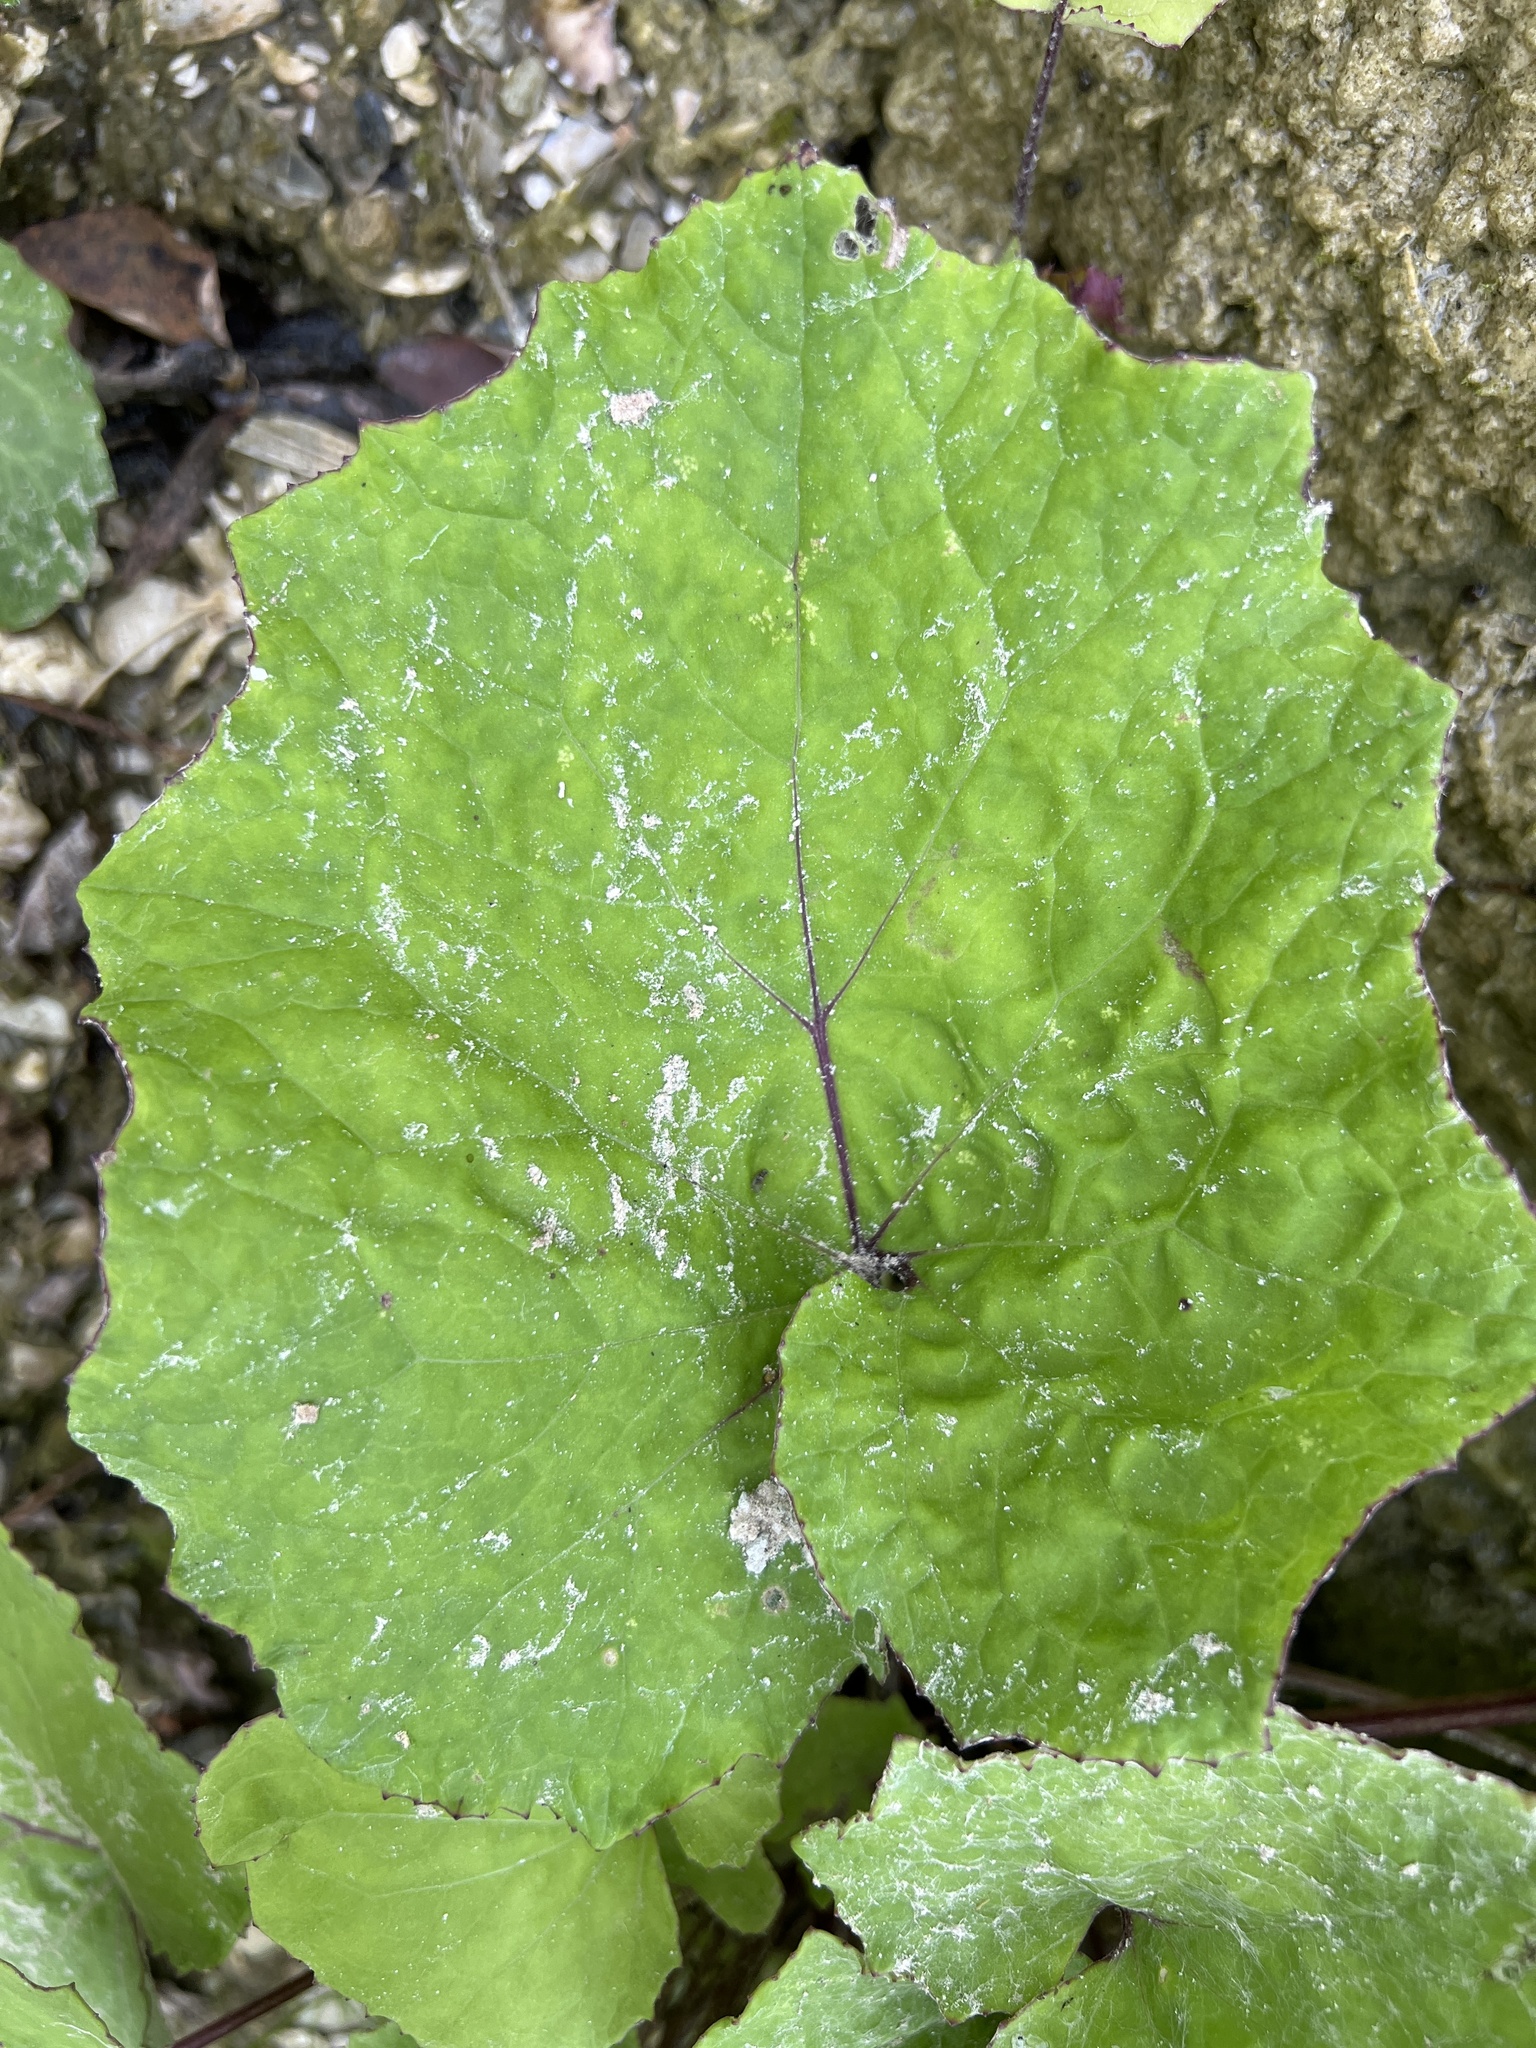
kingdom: Plantae
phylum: Tracheophyta
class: Magnoliopsida
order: Asterales
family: Asteraceae
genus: Tussilago
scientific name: Tussilago farfara
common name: Coltsfoot
